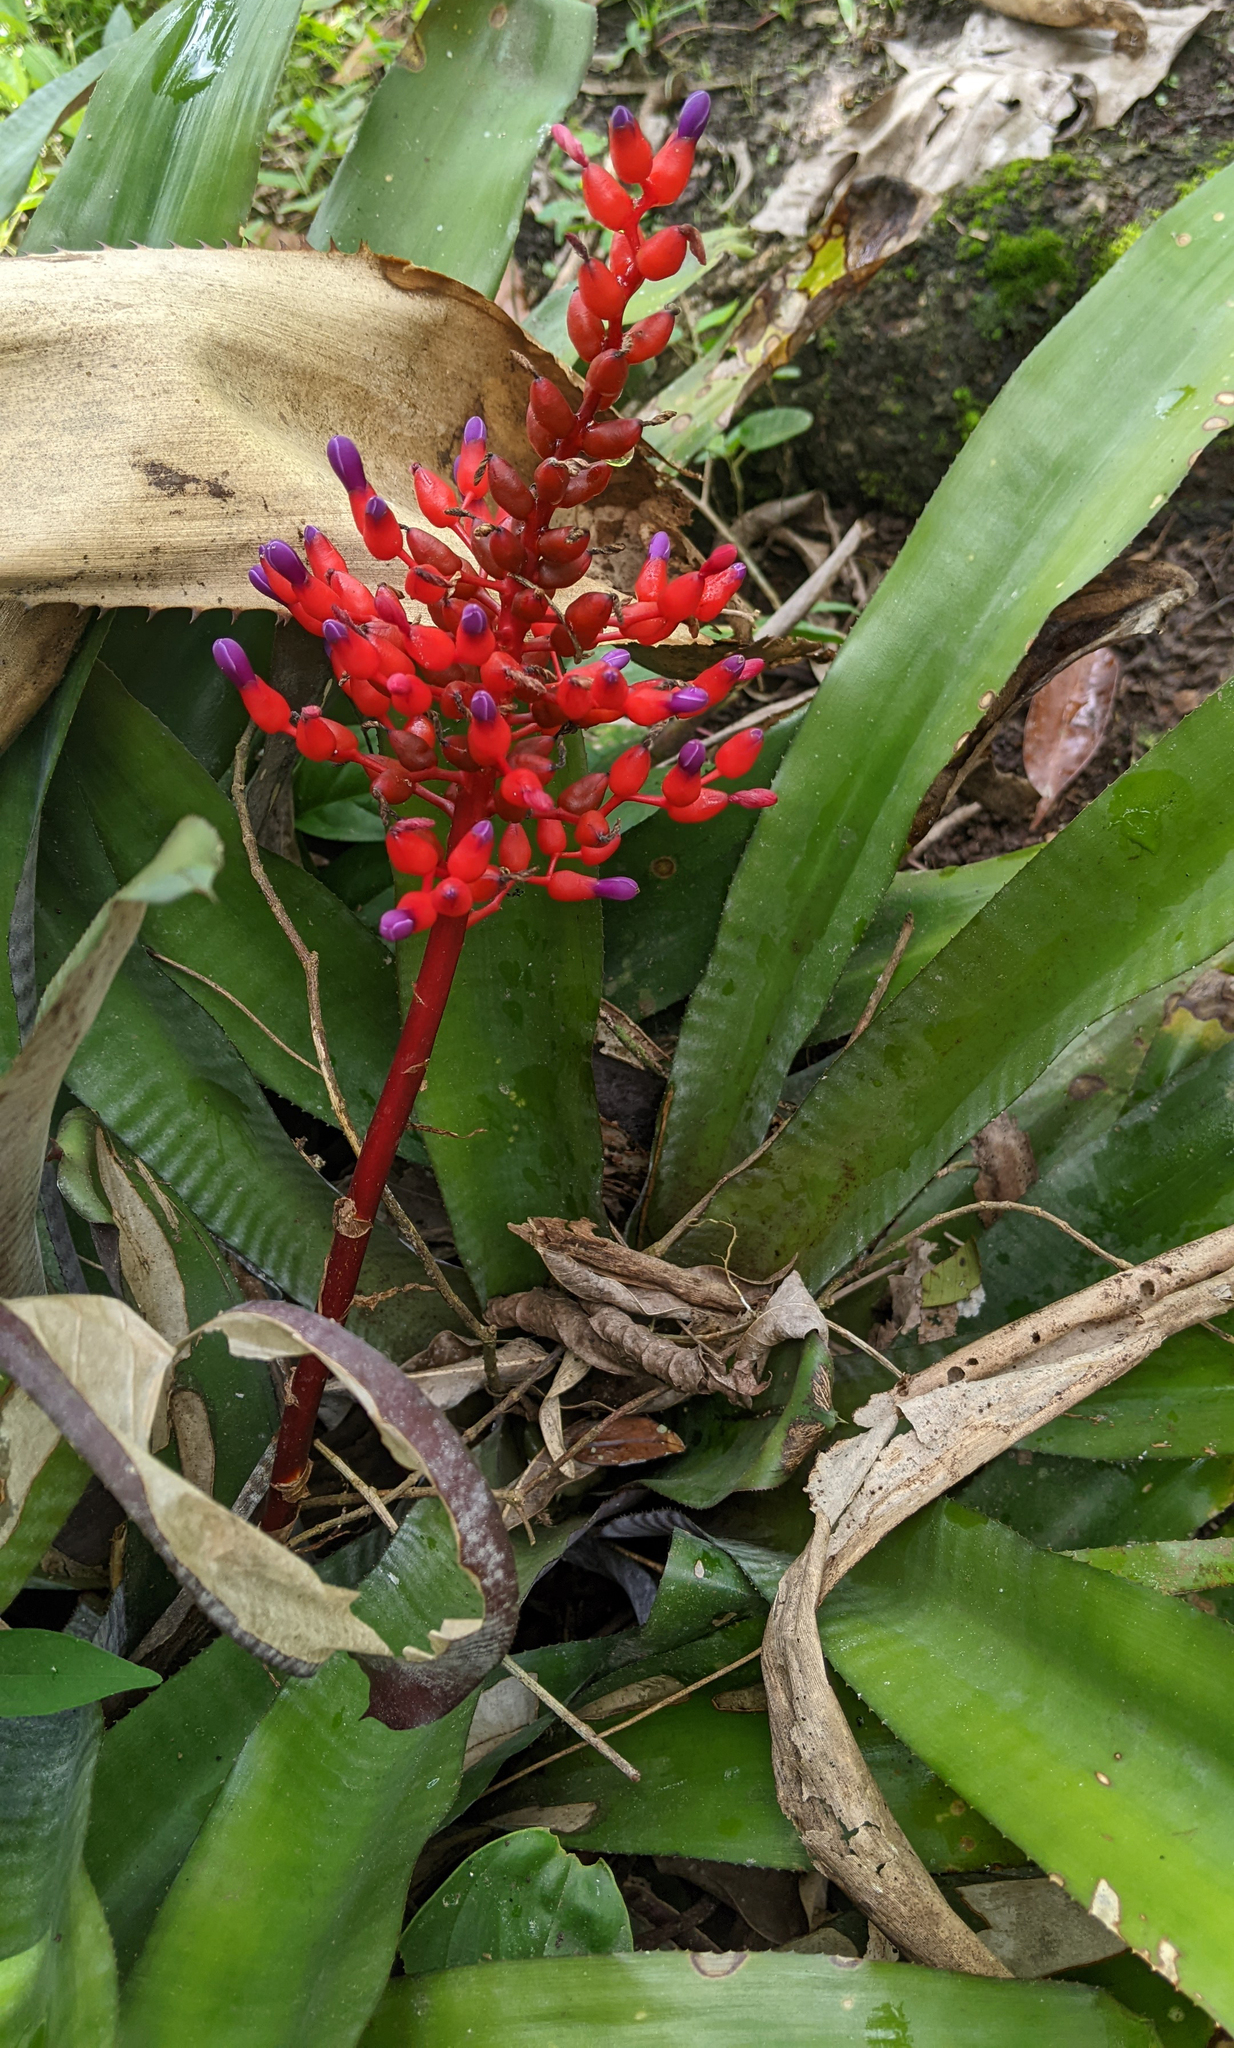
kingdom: Plantae
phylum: Tracheophyta
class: Liliopsida
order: Poales
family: Bromeliaceae
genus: Aechmea
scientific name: Aechmea fulgens
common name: Coralberry
